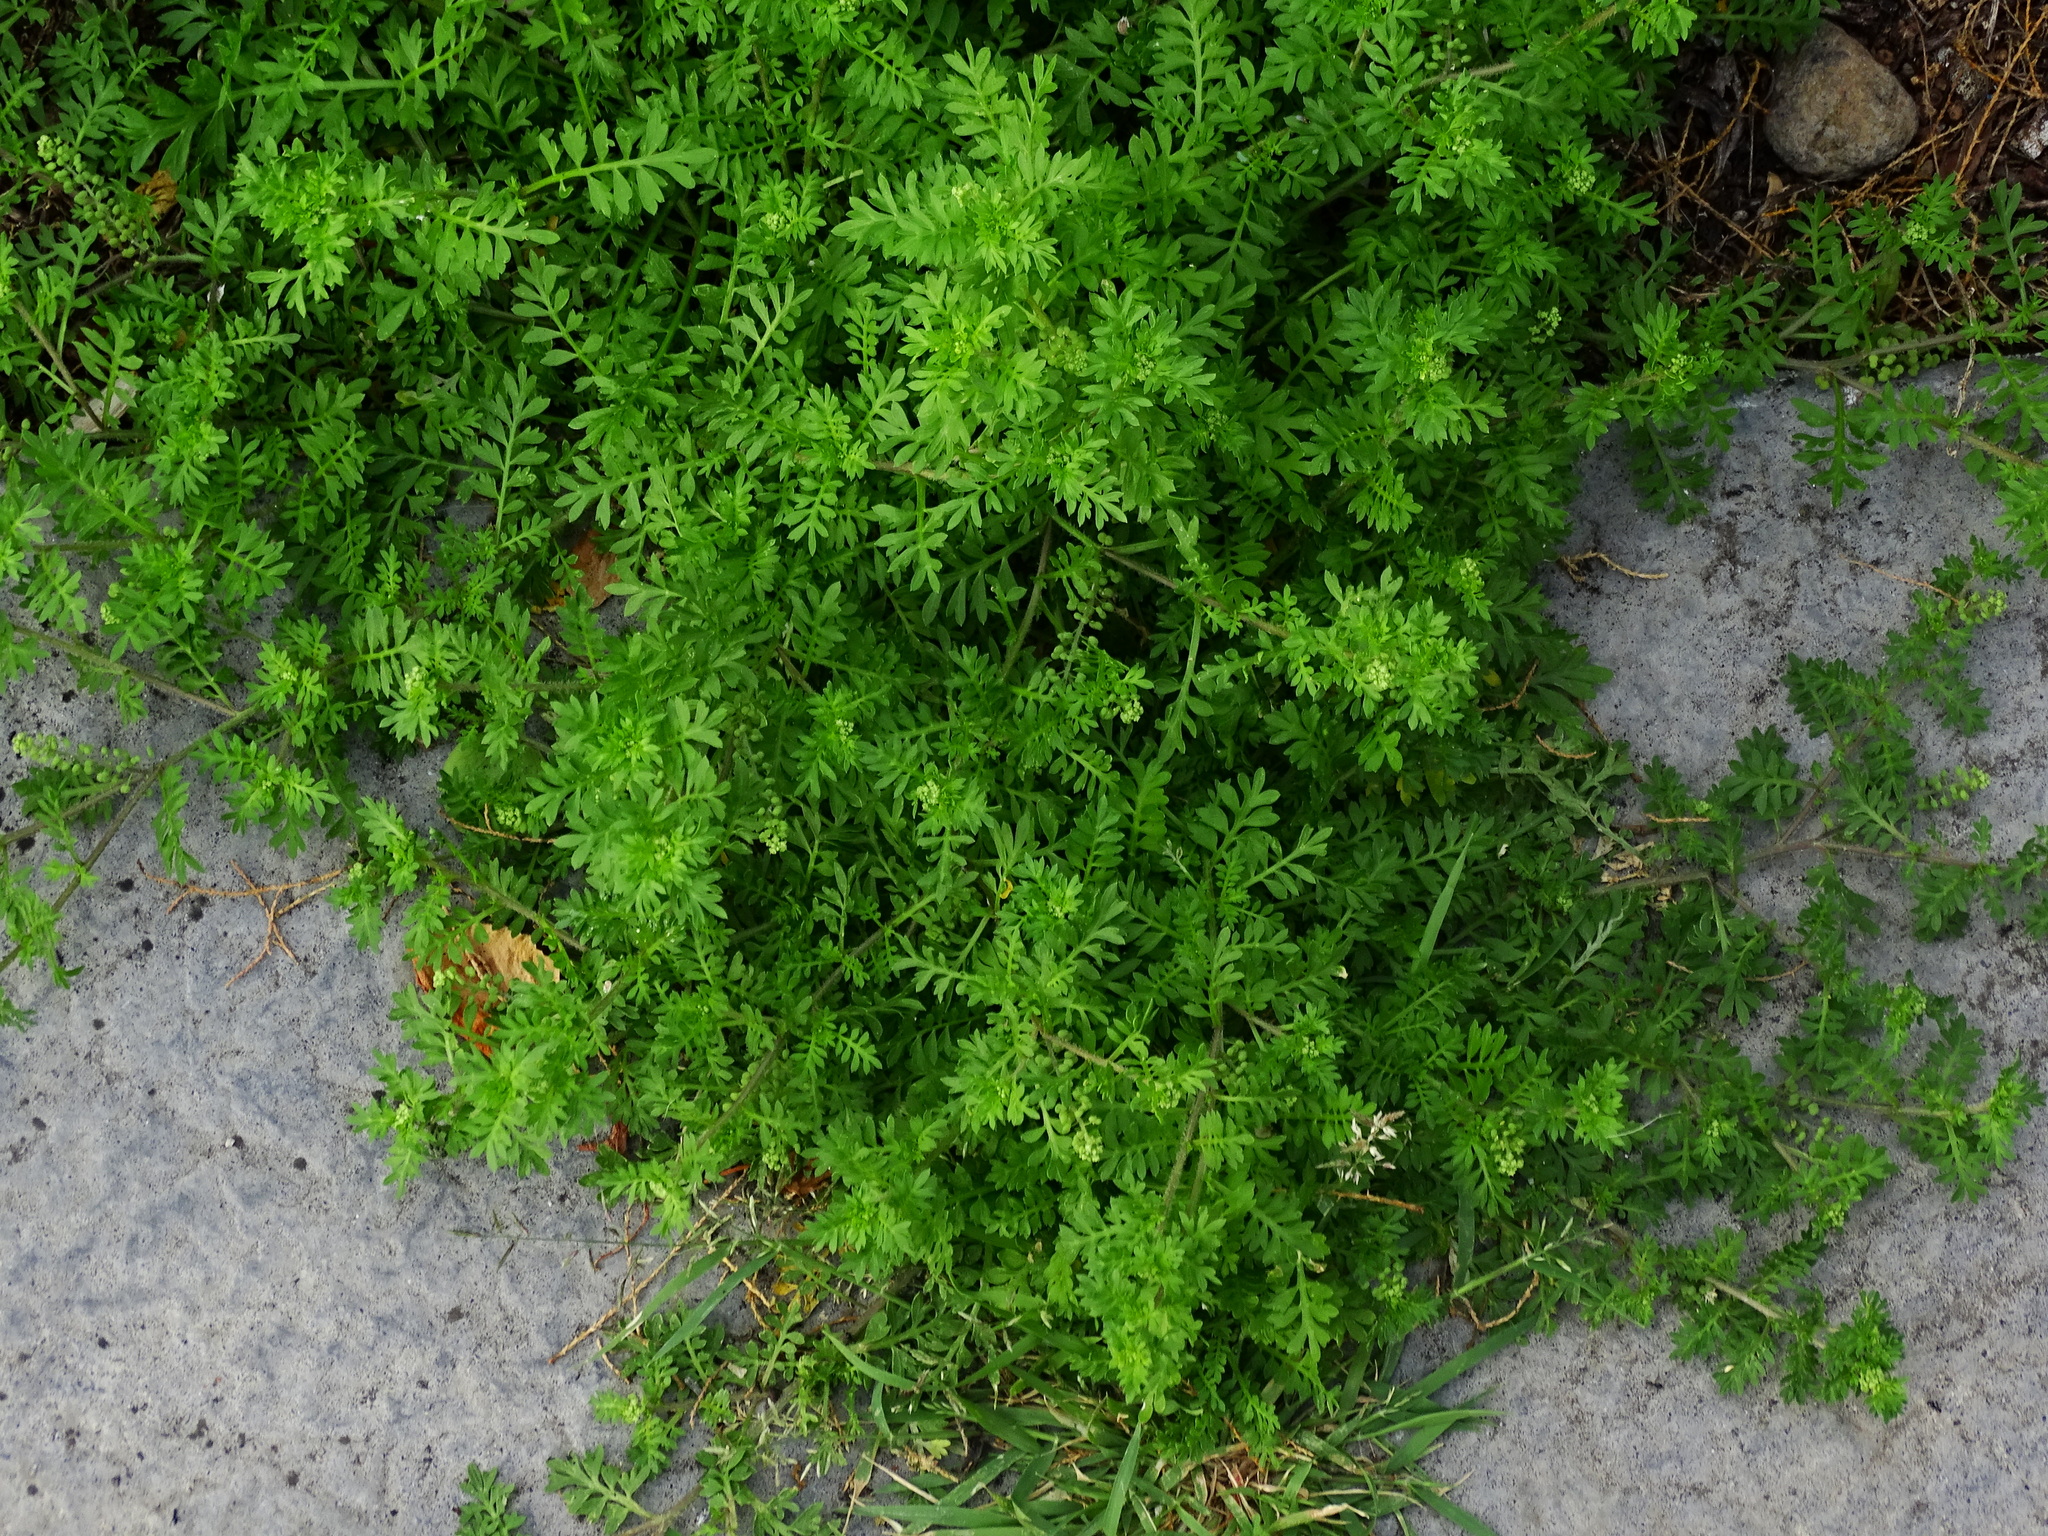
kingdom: Plantae
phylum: Tracheophyta
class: Magnoliopsida
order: Brassicales
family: Brassicaceae
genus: Lepidium
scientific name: Lepidium didymum
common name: Lesser swinecress
